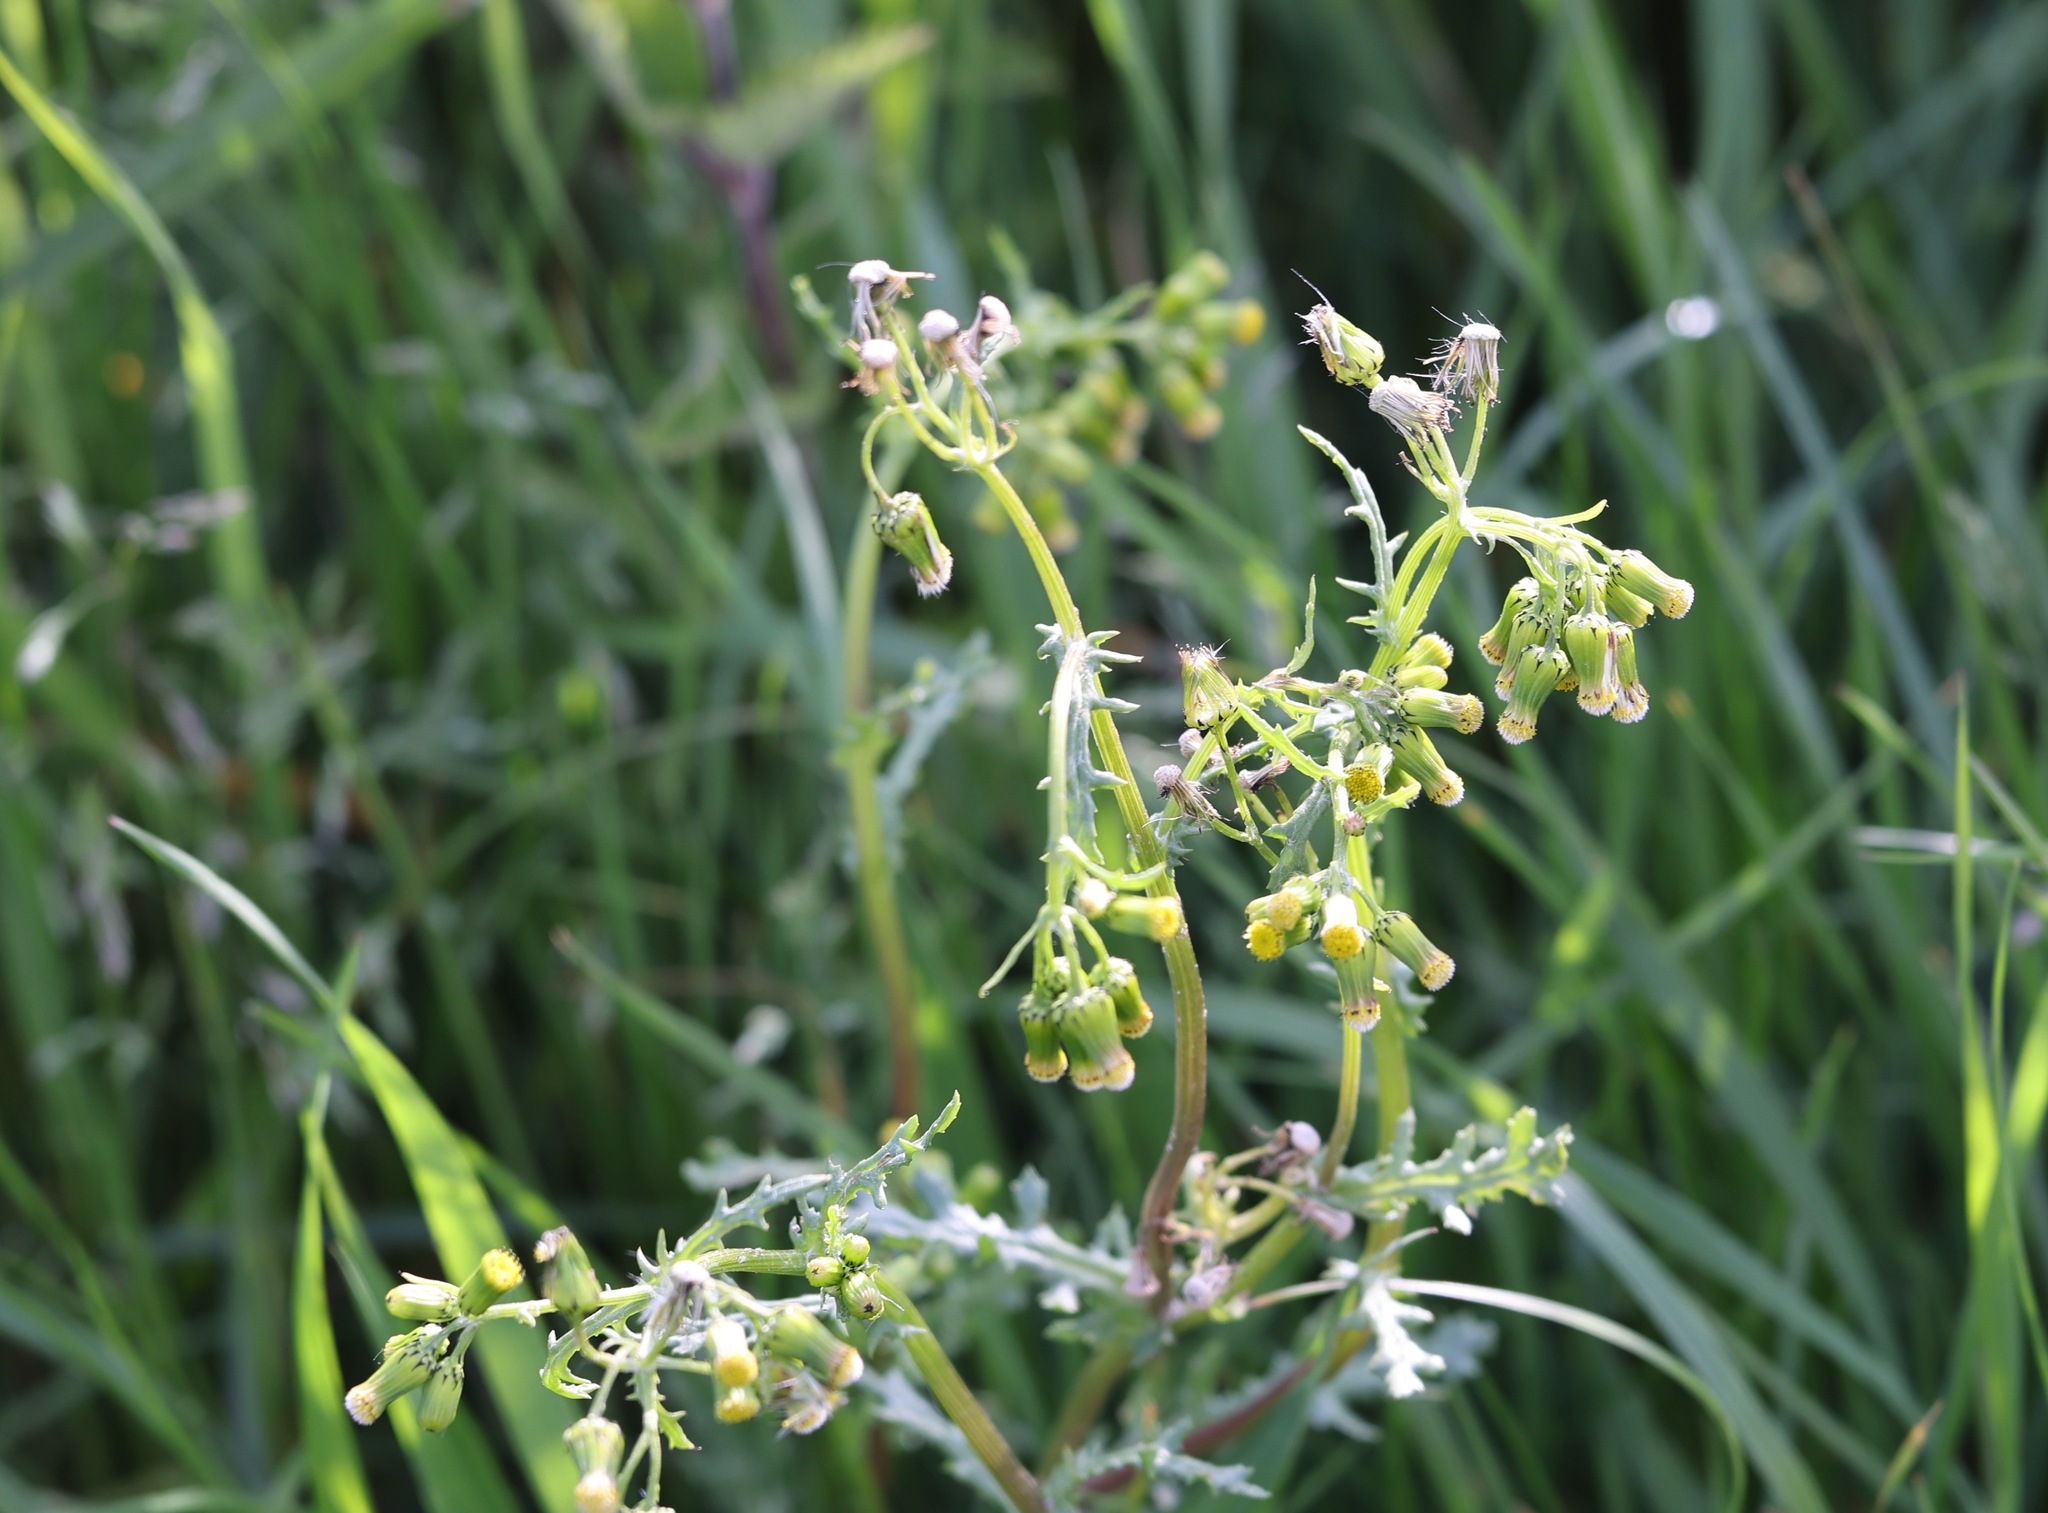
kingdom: Plantae
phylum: Tracheophyta
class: Magnoliopsida
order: Asterales
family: Asteraceae
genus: Senecio
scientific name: Senecio vulgaris
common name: Old-man-in-the-spring
